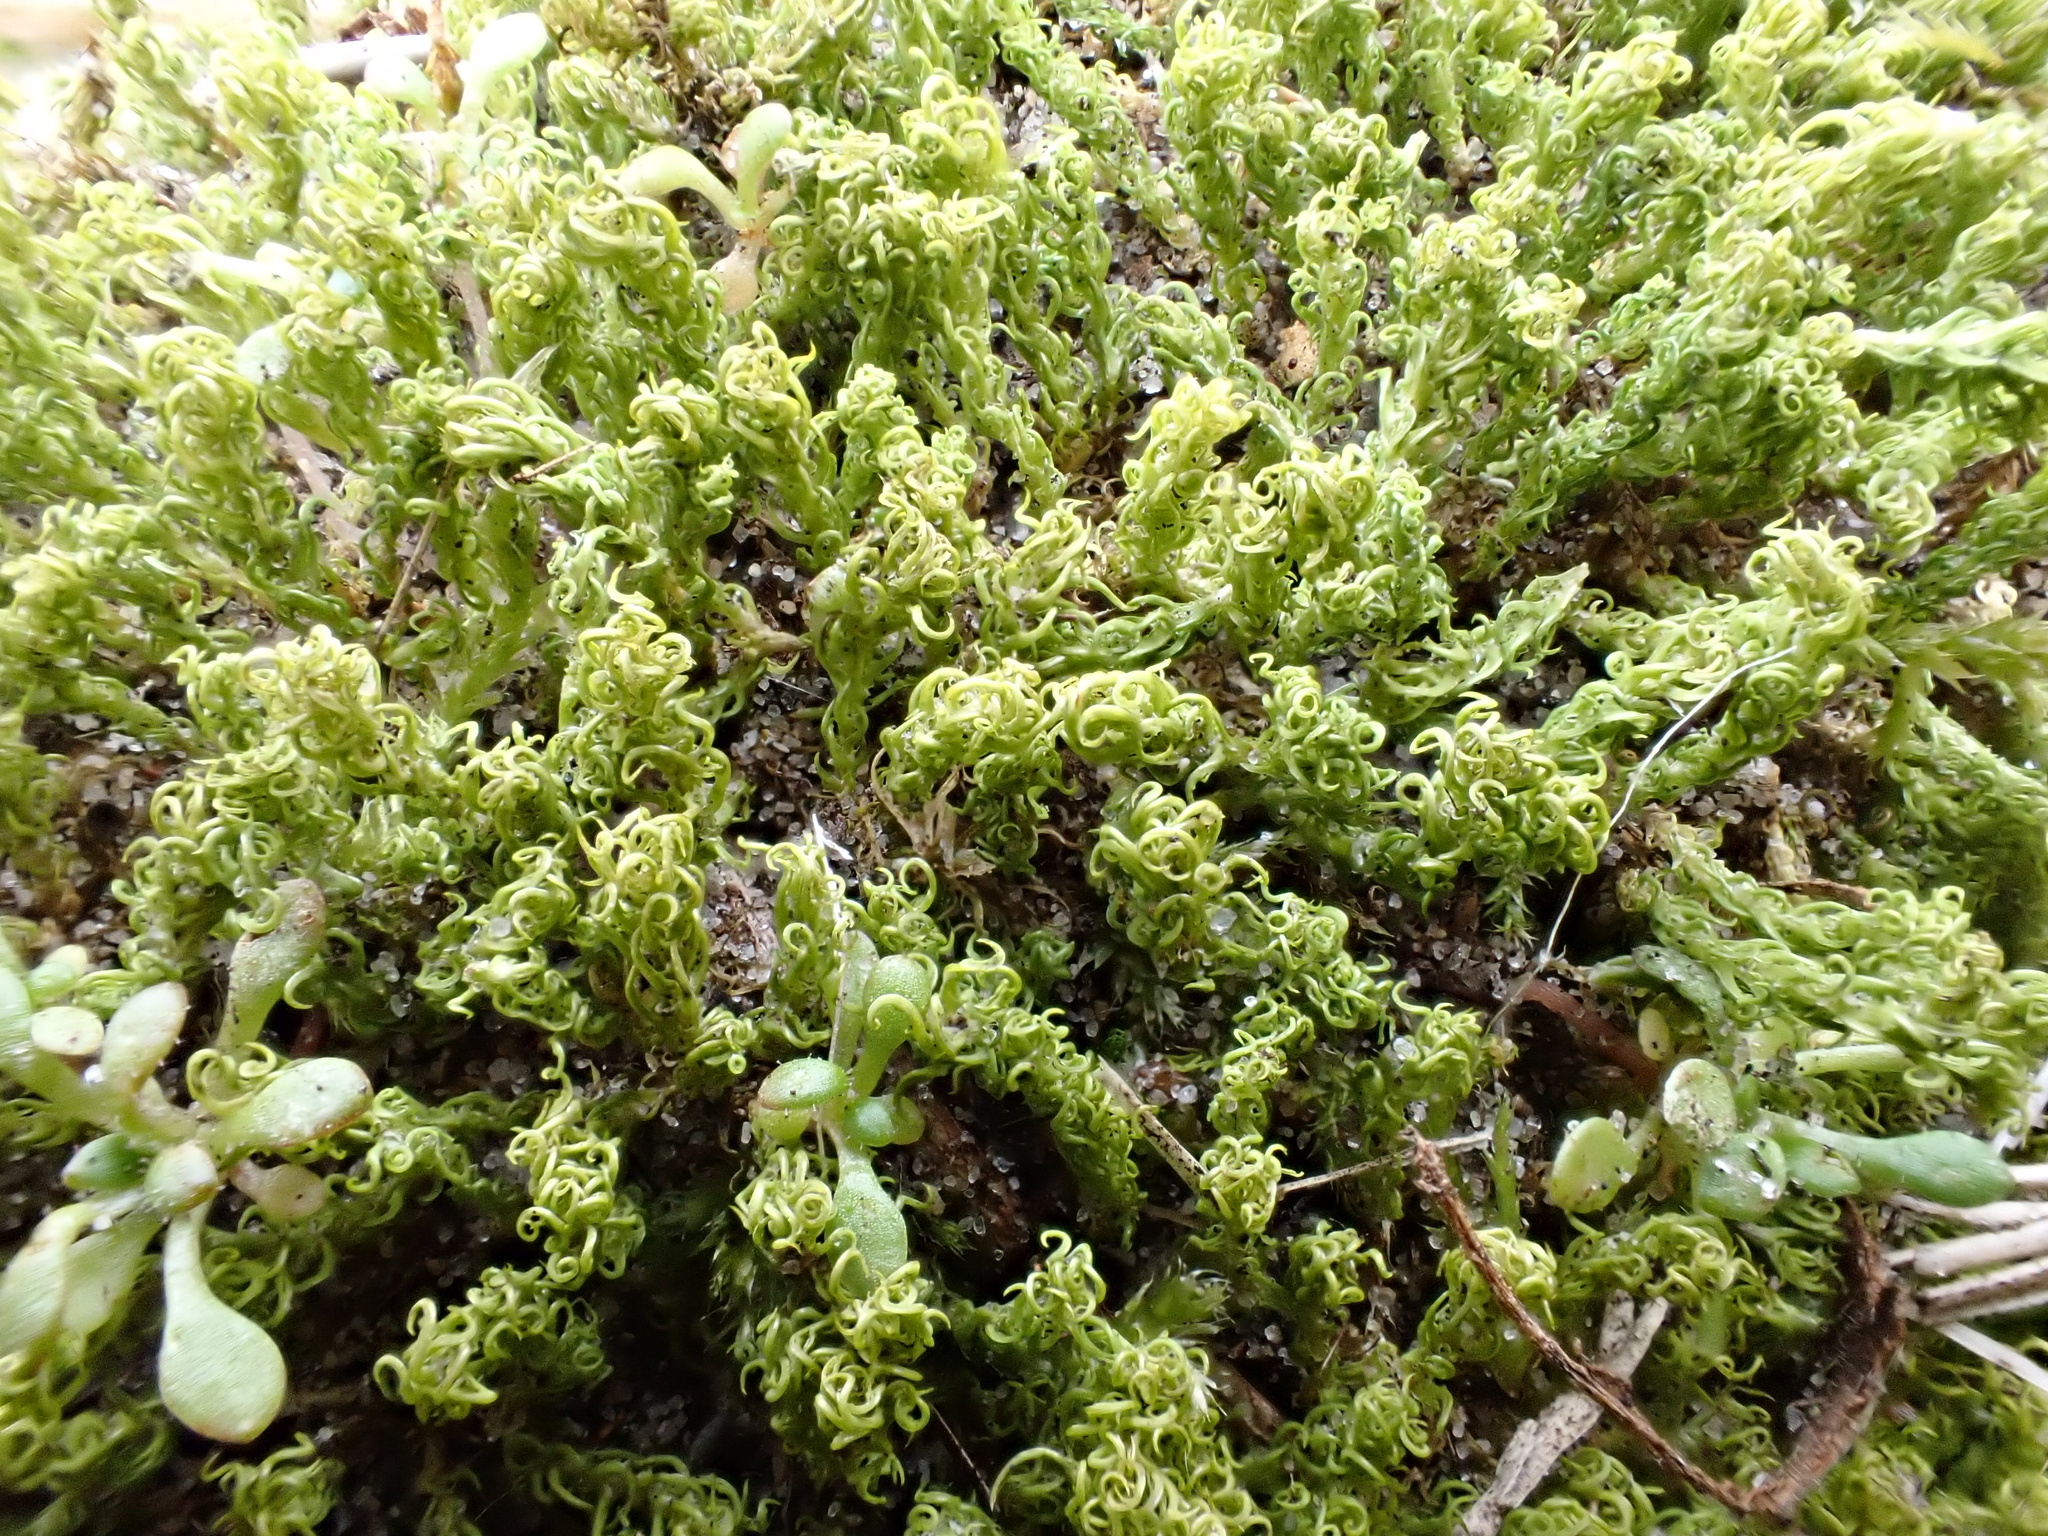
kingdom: Plantae
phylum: Bryophyta
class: Bryopsida
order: Pottiales
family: Pottiaceae
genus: Pleurochaete
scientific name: Pleurochaete squarrosa
